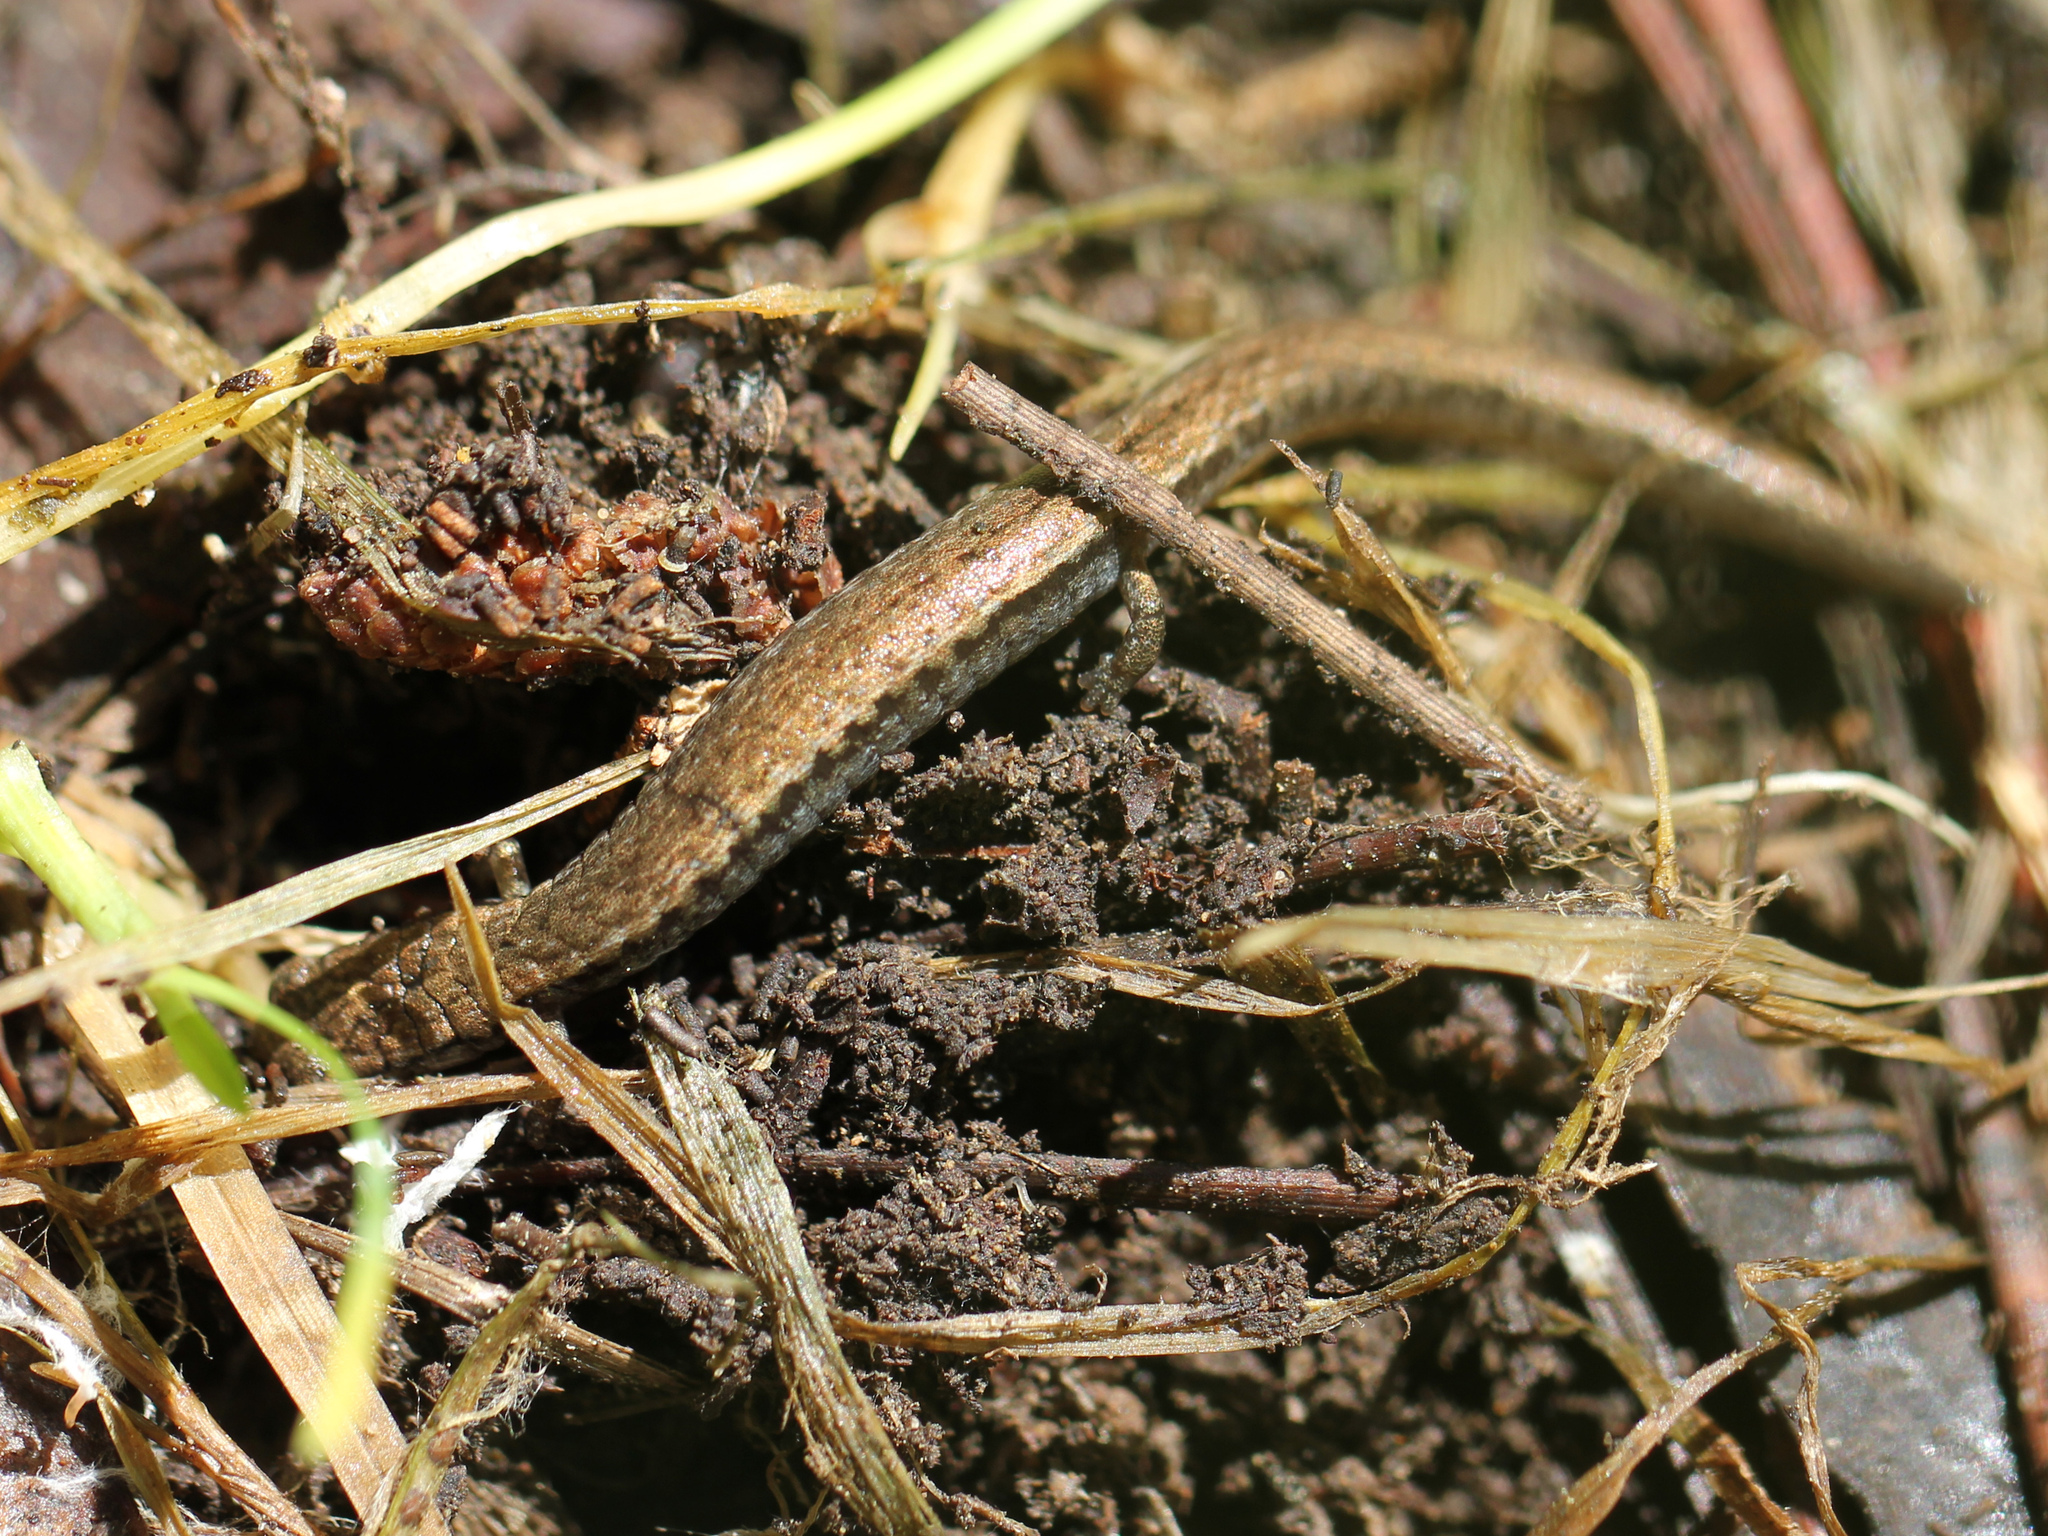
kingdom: Animalia
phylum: Chordata
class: Amphibia
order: Caudata
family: Plethodontidae
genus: Batrachoseps
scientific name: Batrachoseps attenuatus
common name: California slender salamander
